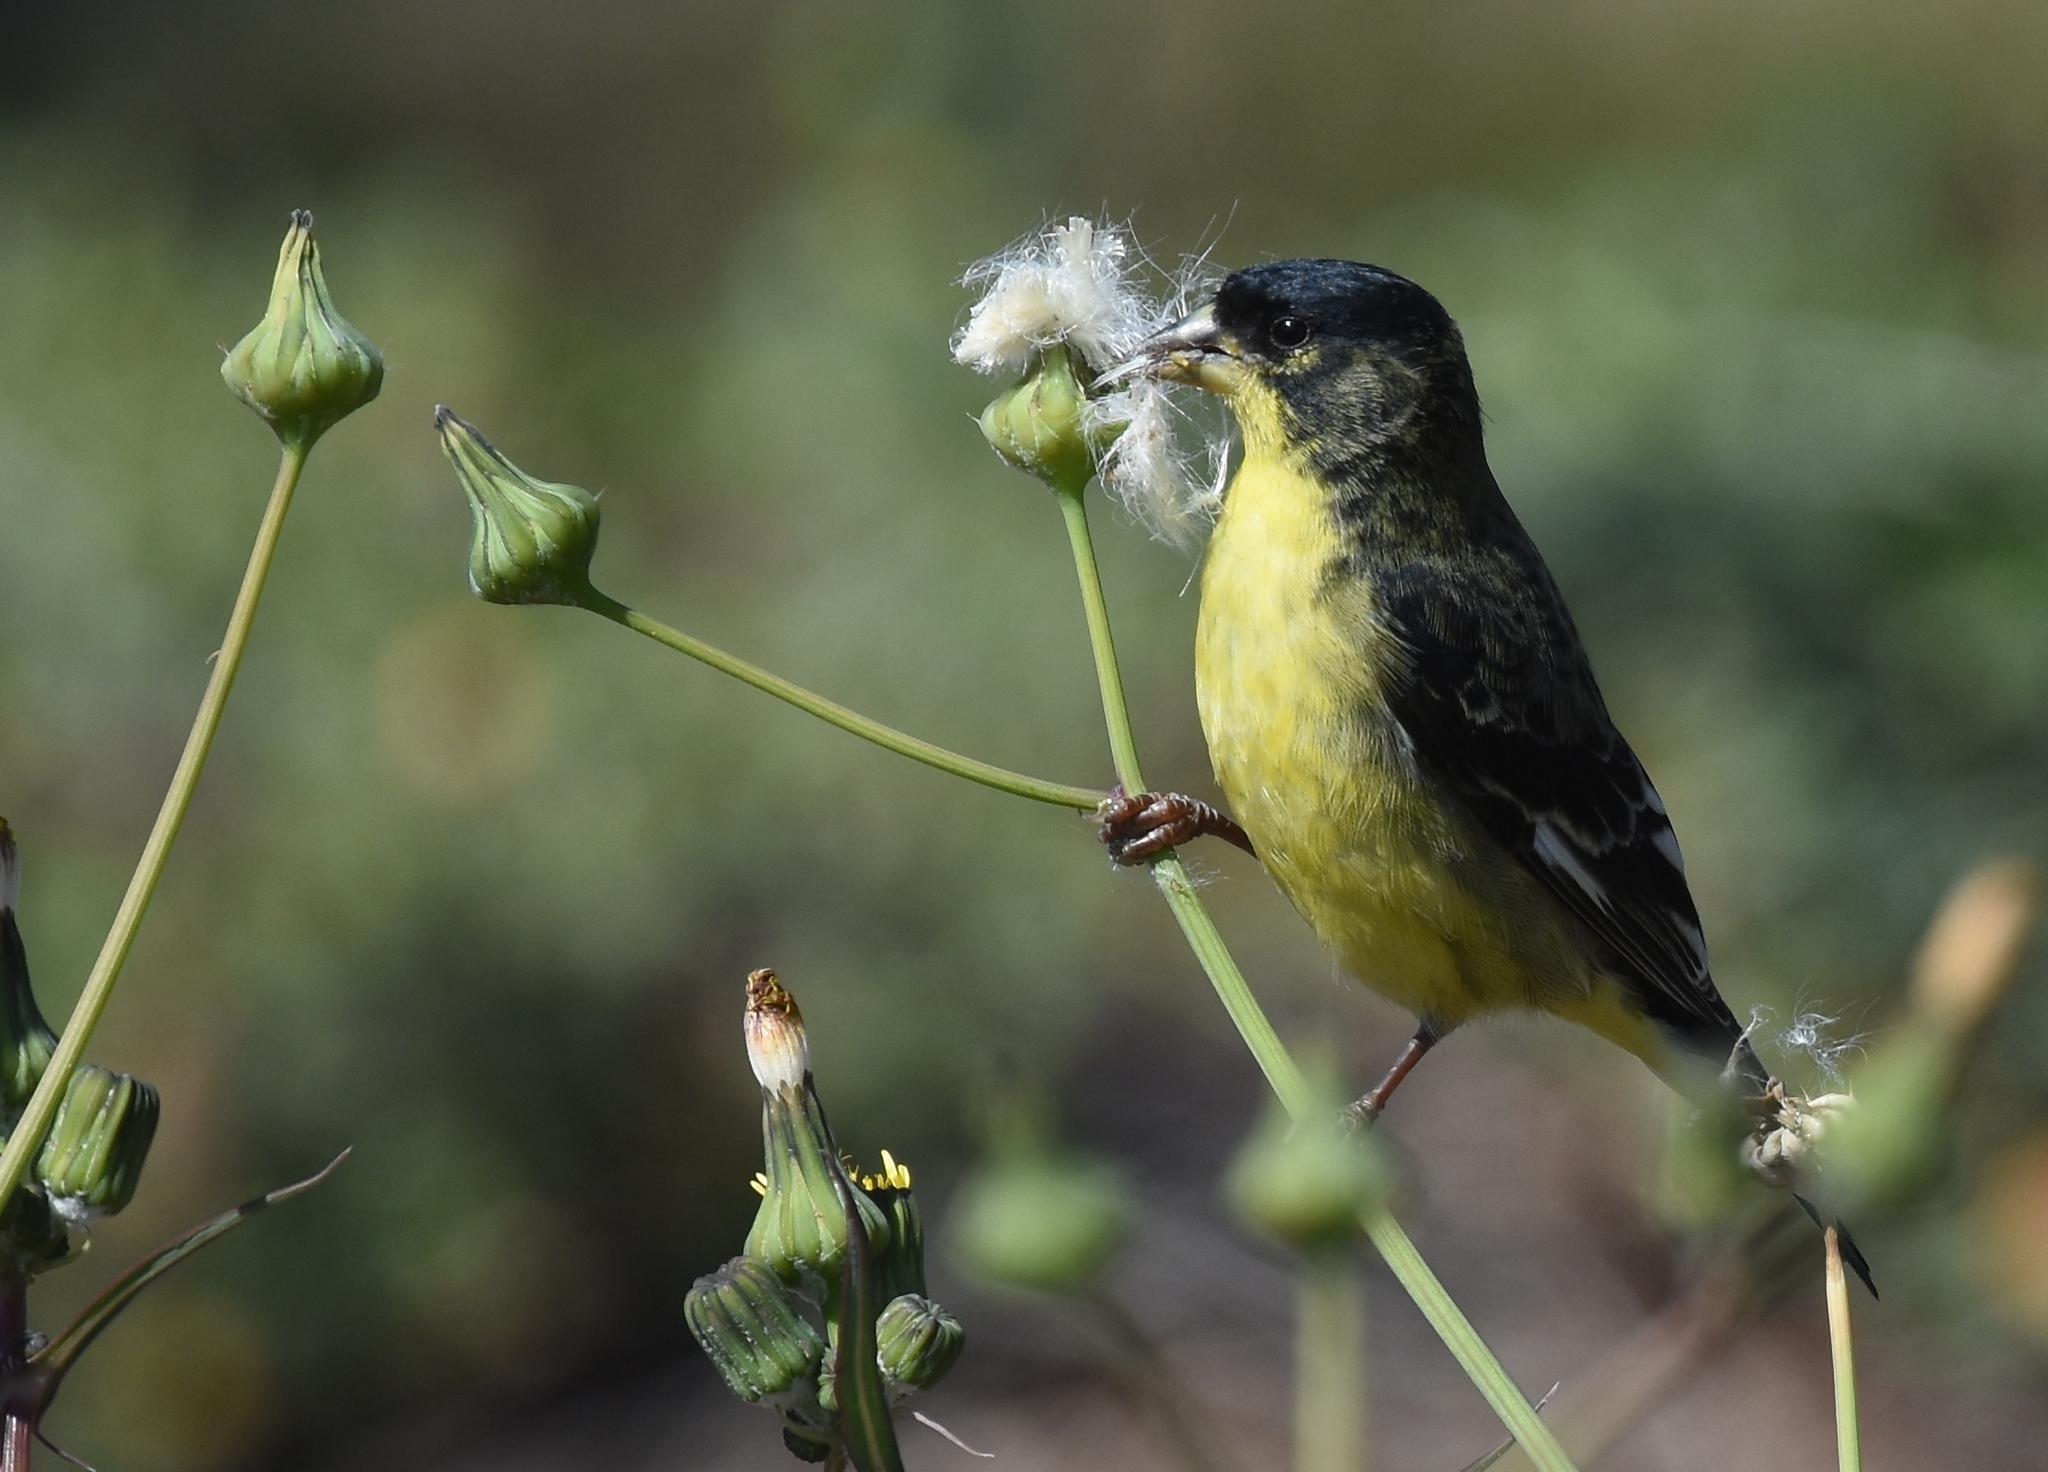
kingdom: Animalia
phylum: Chordata
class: Aves
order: Passeriformes
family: Fringillidae
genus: Spinus
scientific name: Spinus psaltria
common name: Lesser goldfinch
